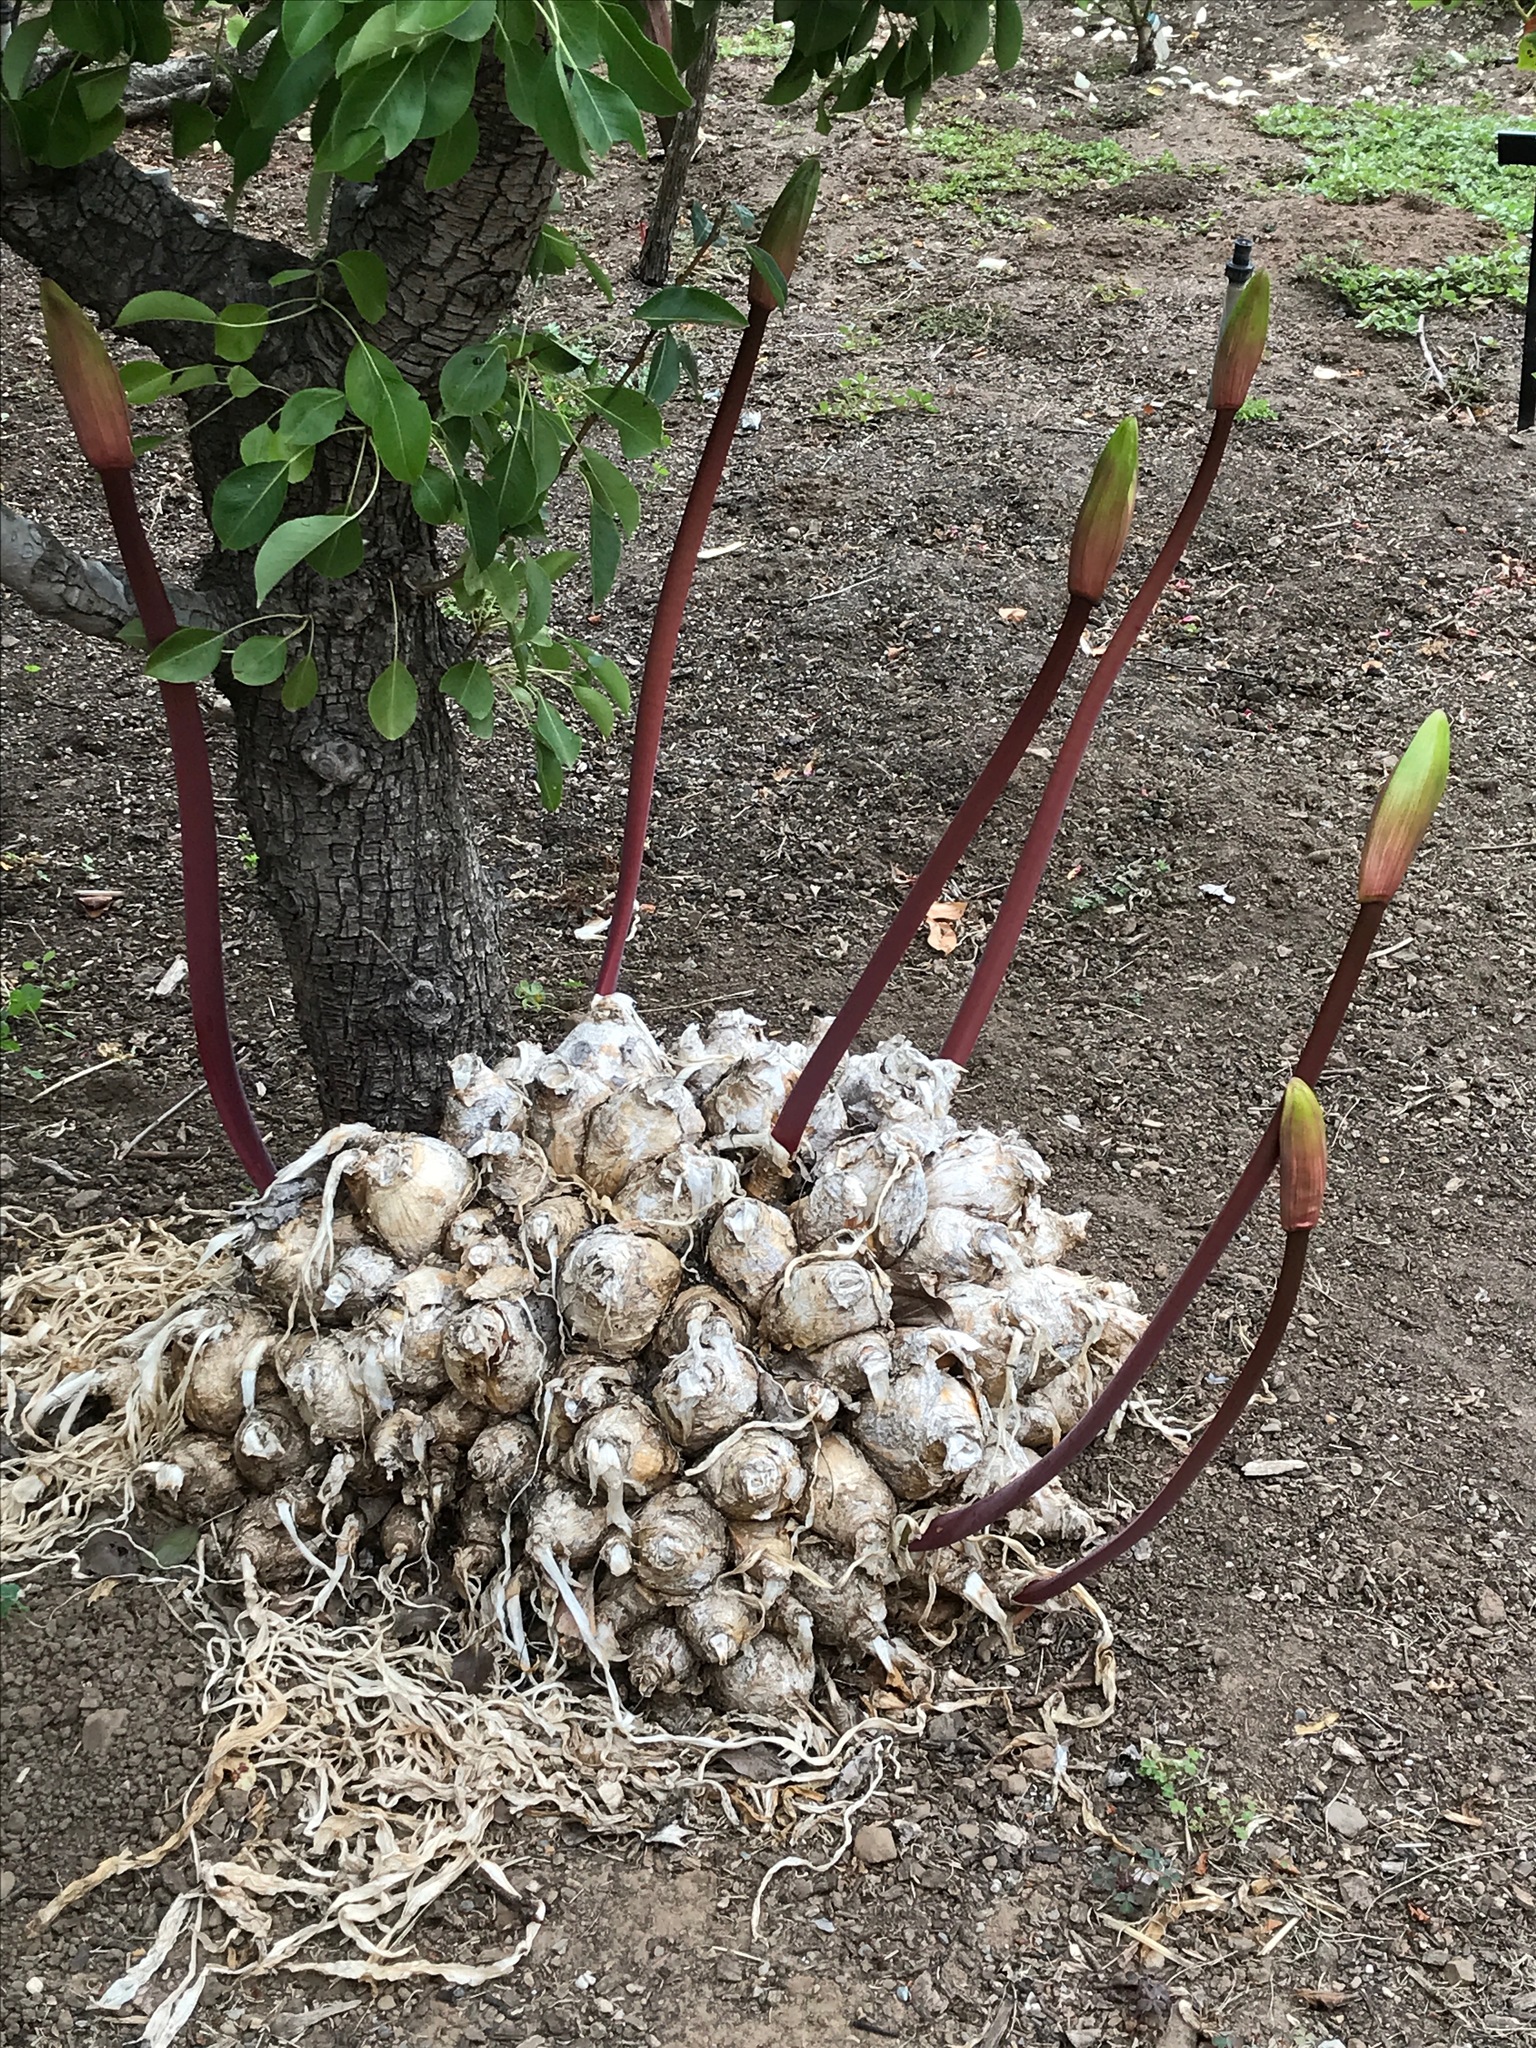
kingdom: Plantae
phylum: Tracheophyta
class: Liliopsida
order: Asparagales
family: Amaryllidaceae
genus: Amaryllis
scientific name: Amaryllis belladonna
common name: Jersey lily
